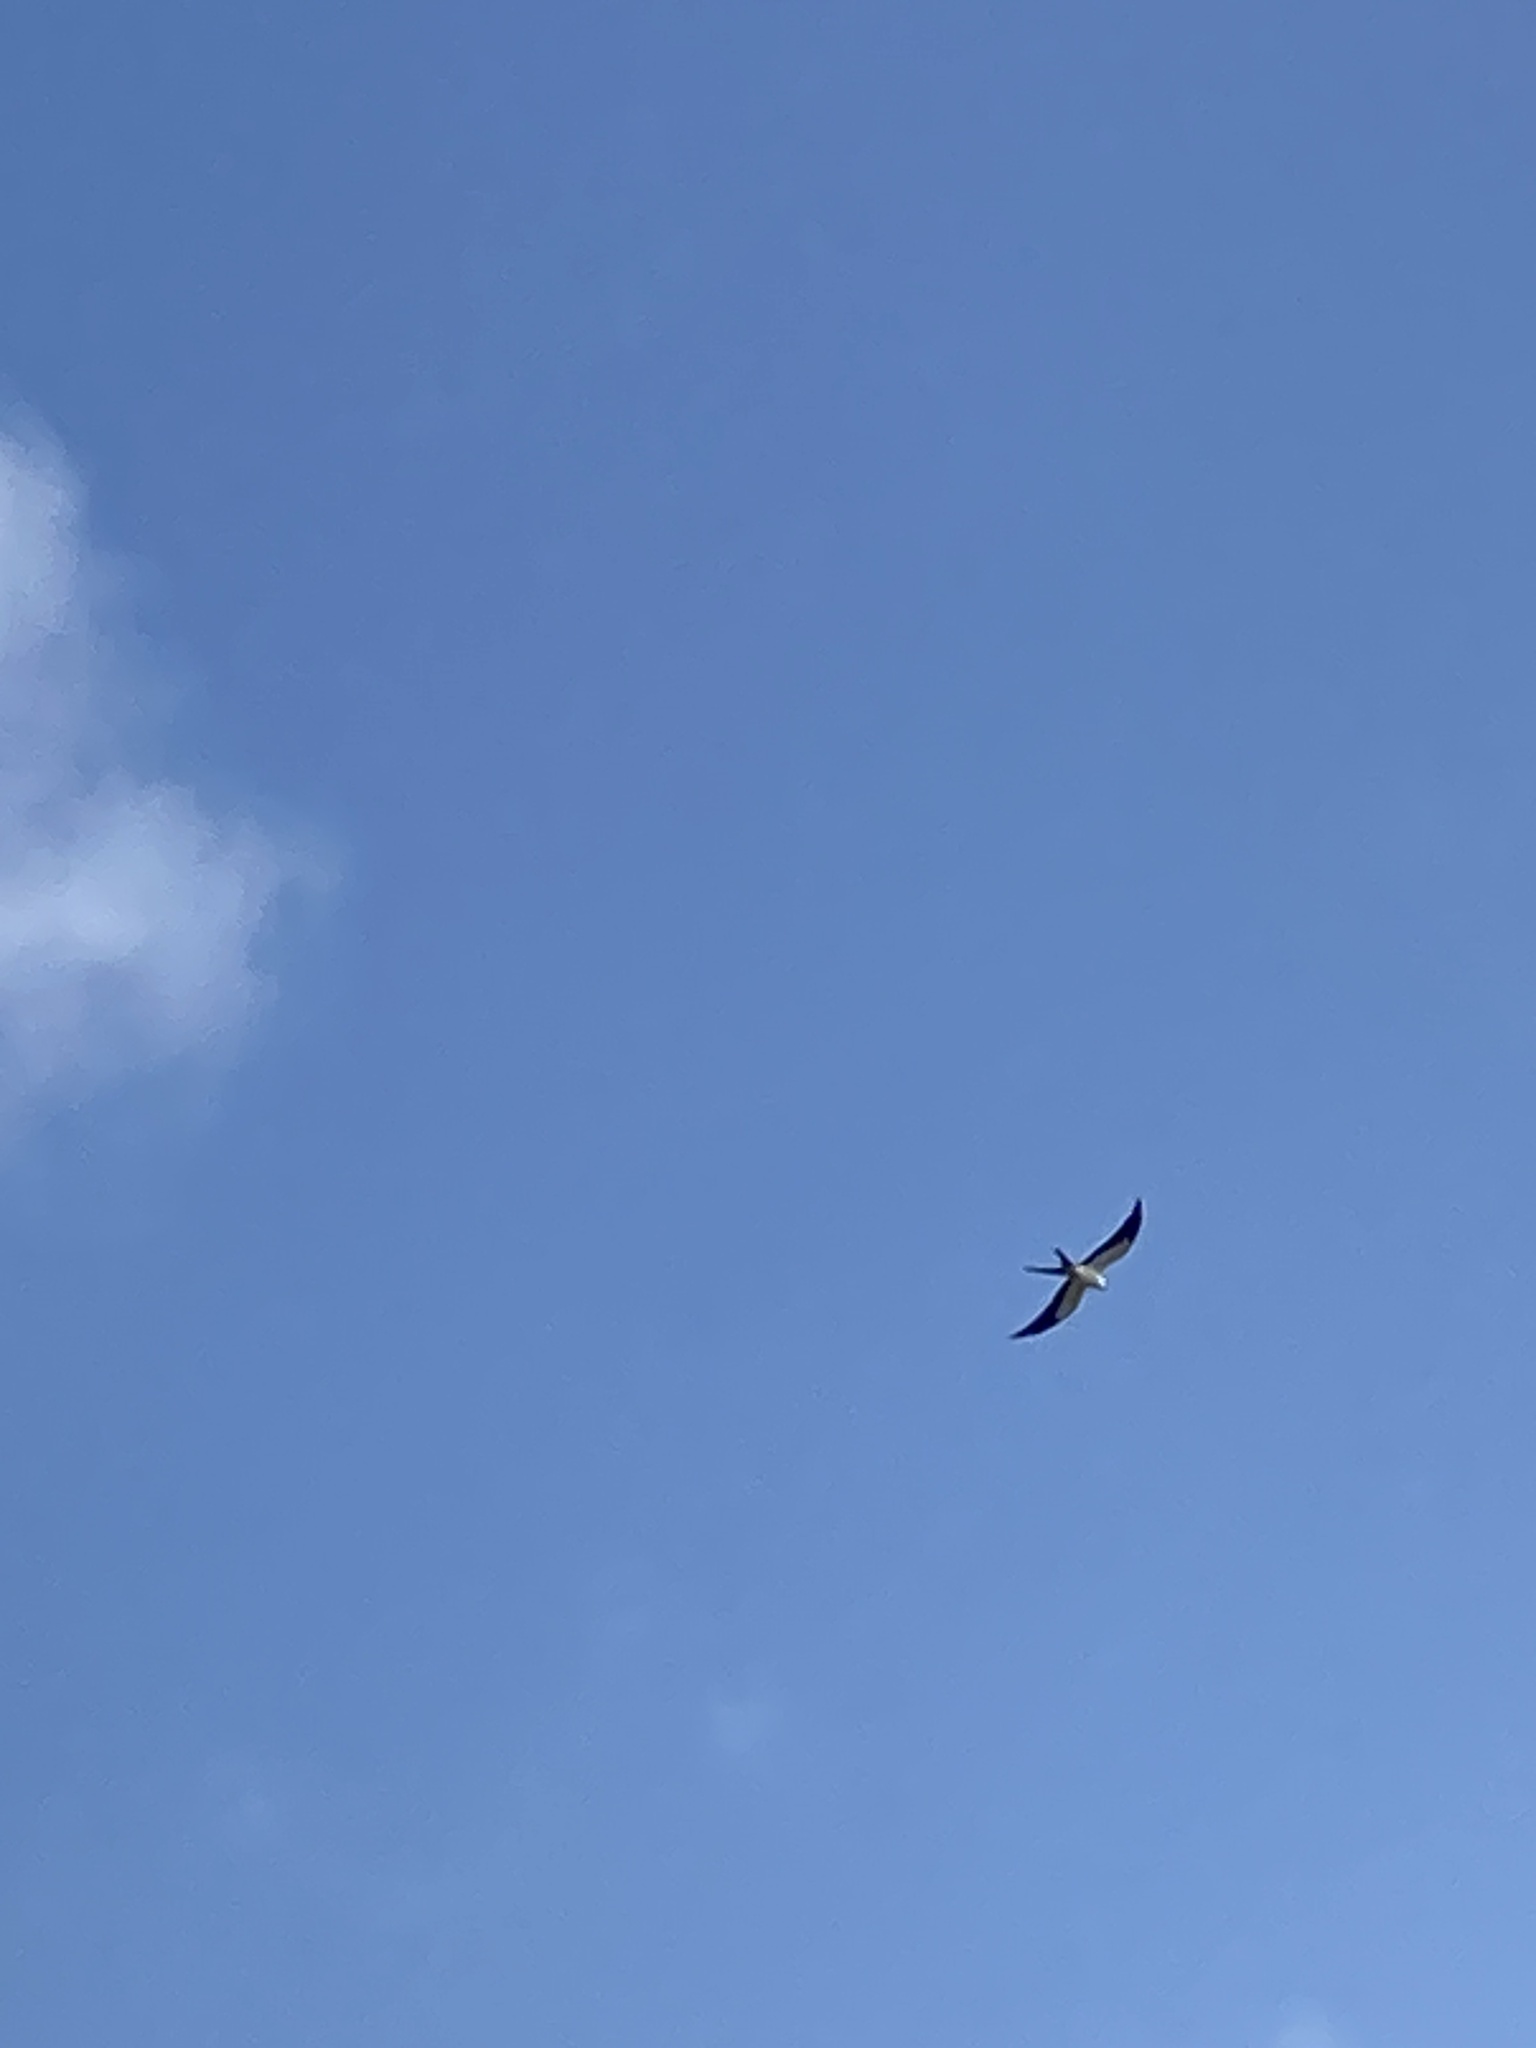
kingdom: Animalia
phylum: Chordata
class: Aves
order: Accipitriformes
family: Accipitridae
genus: Elanoides
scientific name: Elanoides forficatus
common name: Swallow-tailed kite
